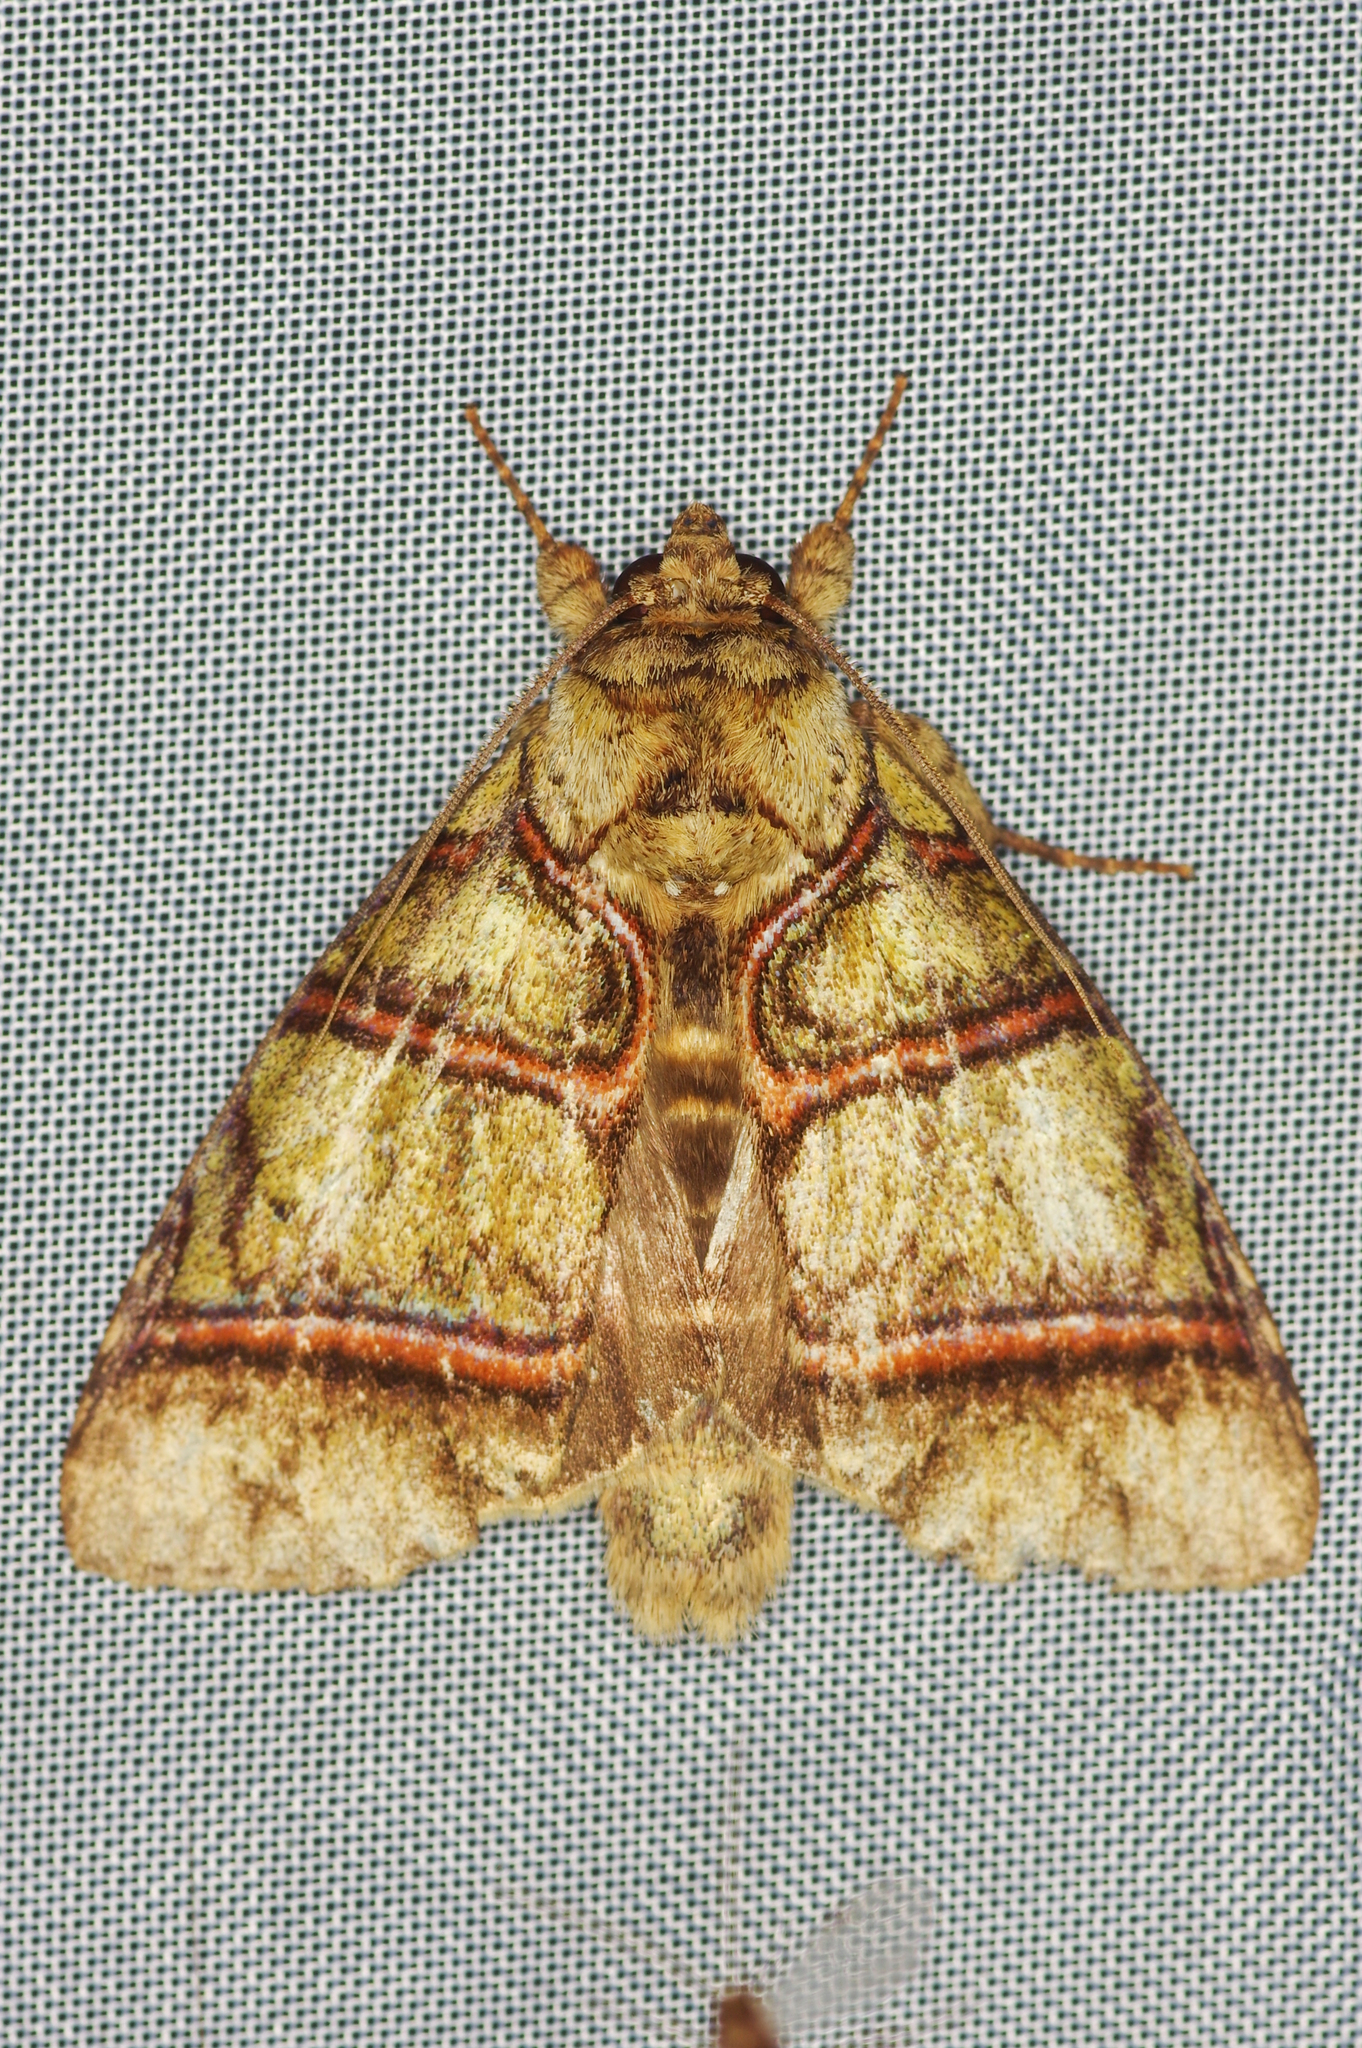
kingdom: Animalia
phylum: Arthropoda
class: Insecta
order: Lepidoptera
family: Notodontidae
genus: Eragisa
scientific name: Eragisa antarorum
